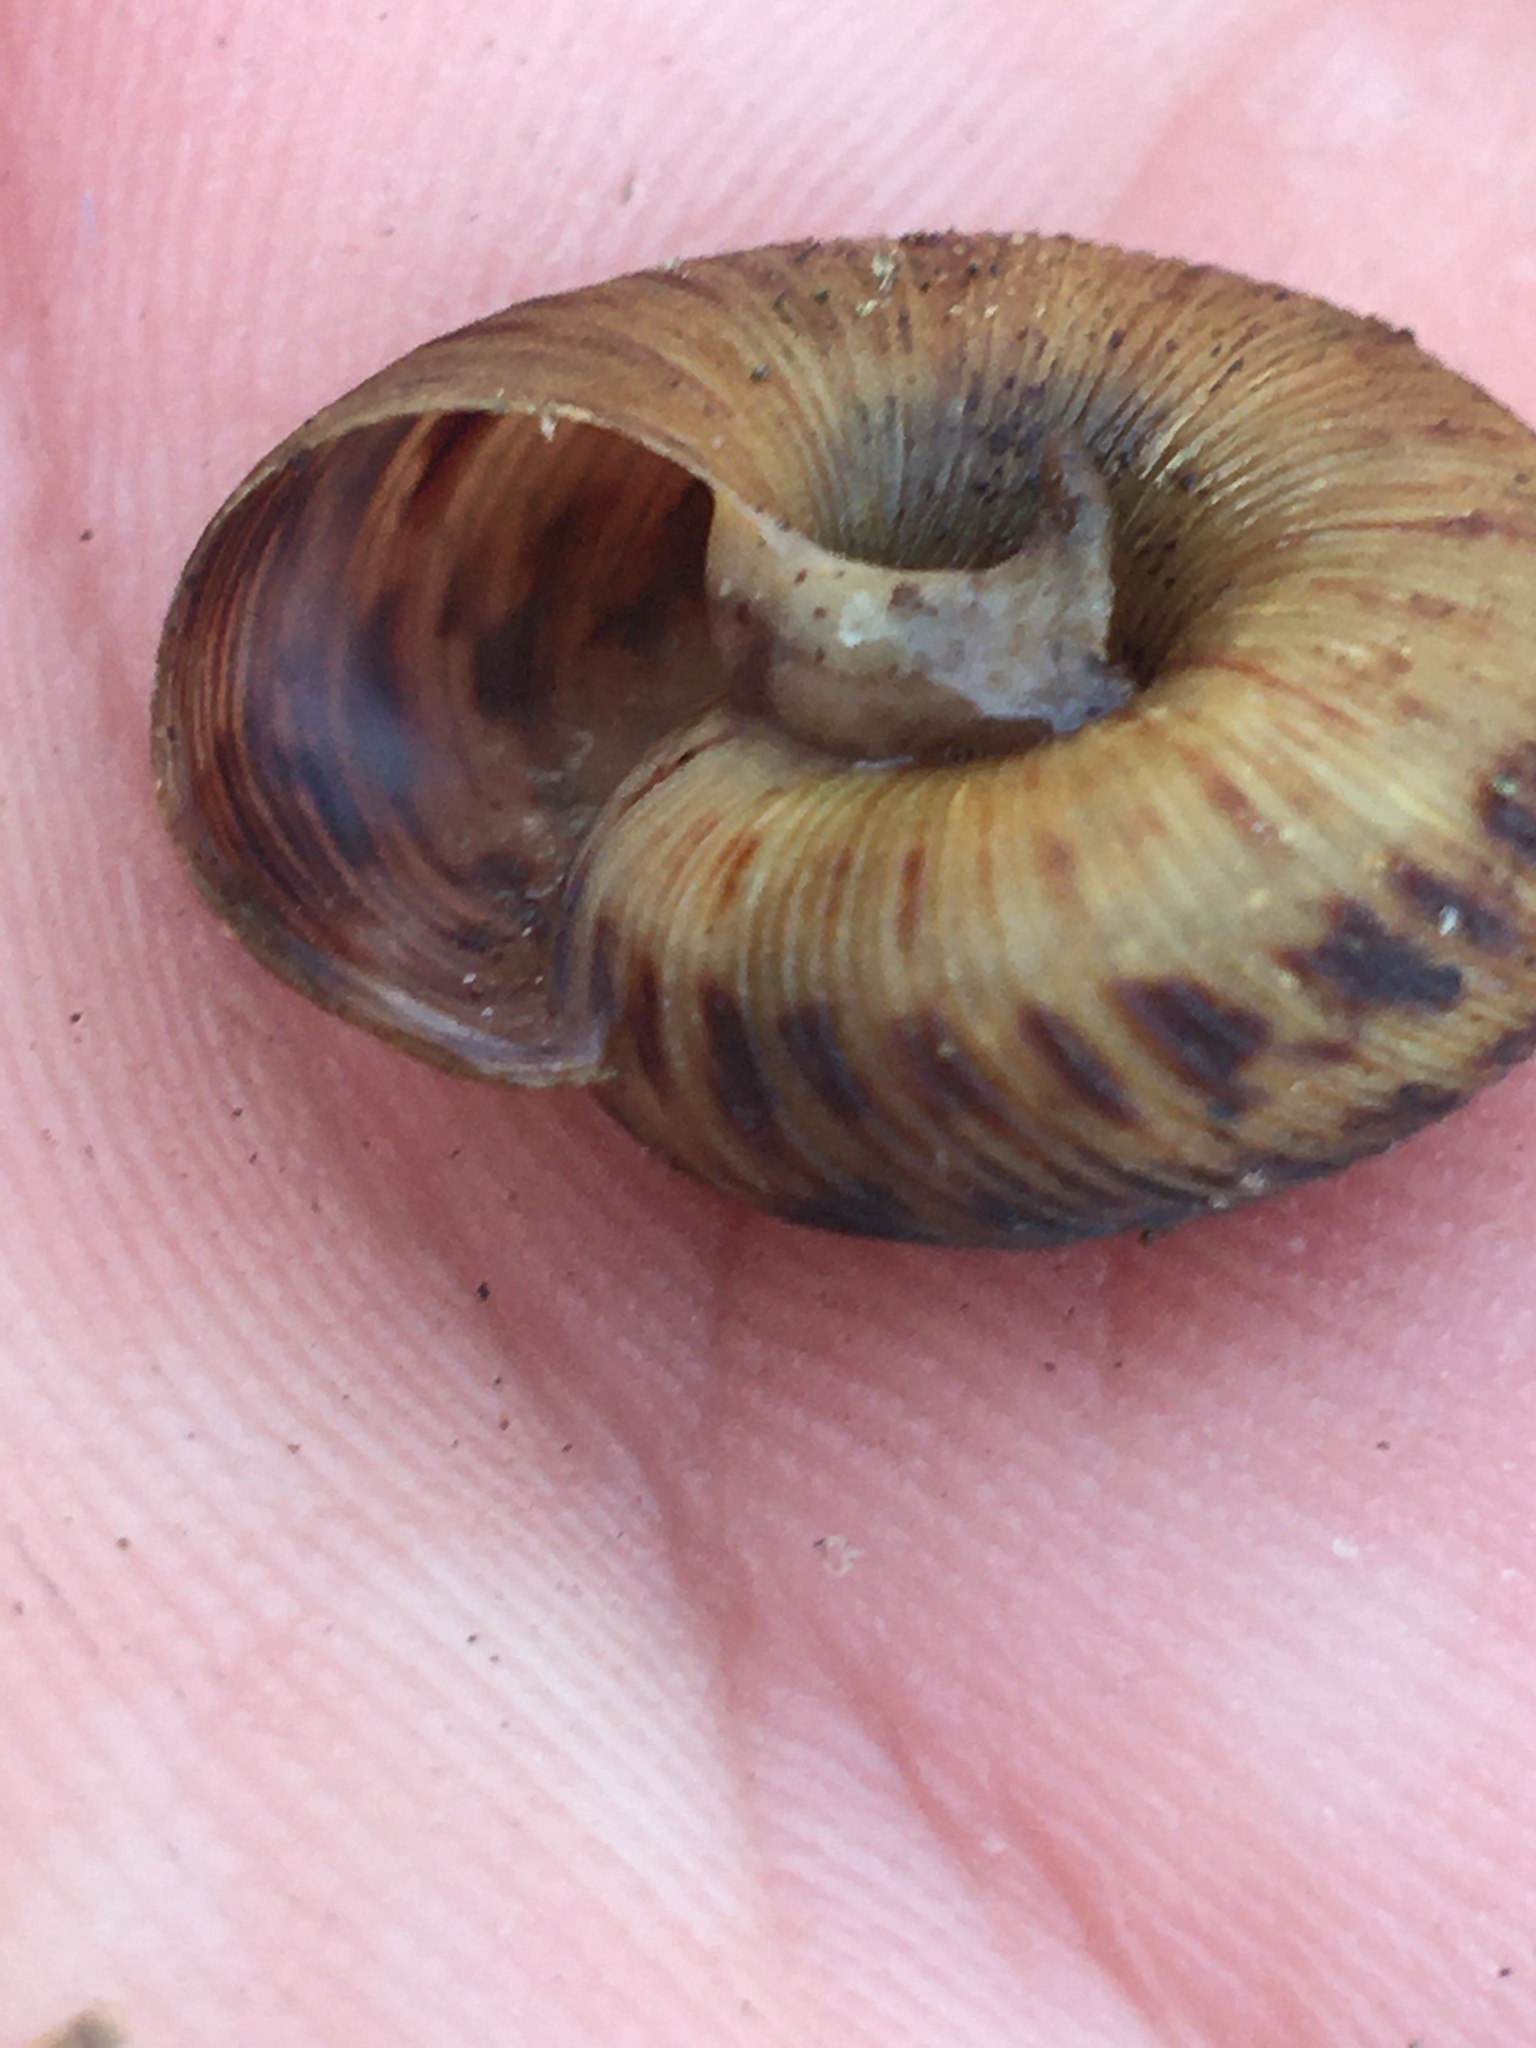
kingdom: Animalia
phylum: Mollusca
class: Gastropoda
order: Stylommatophora
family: Discidae
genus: Anguispira
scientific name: Anguispira alternata
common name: Flamed tigersnail
